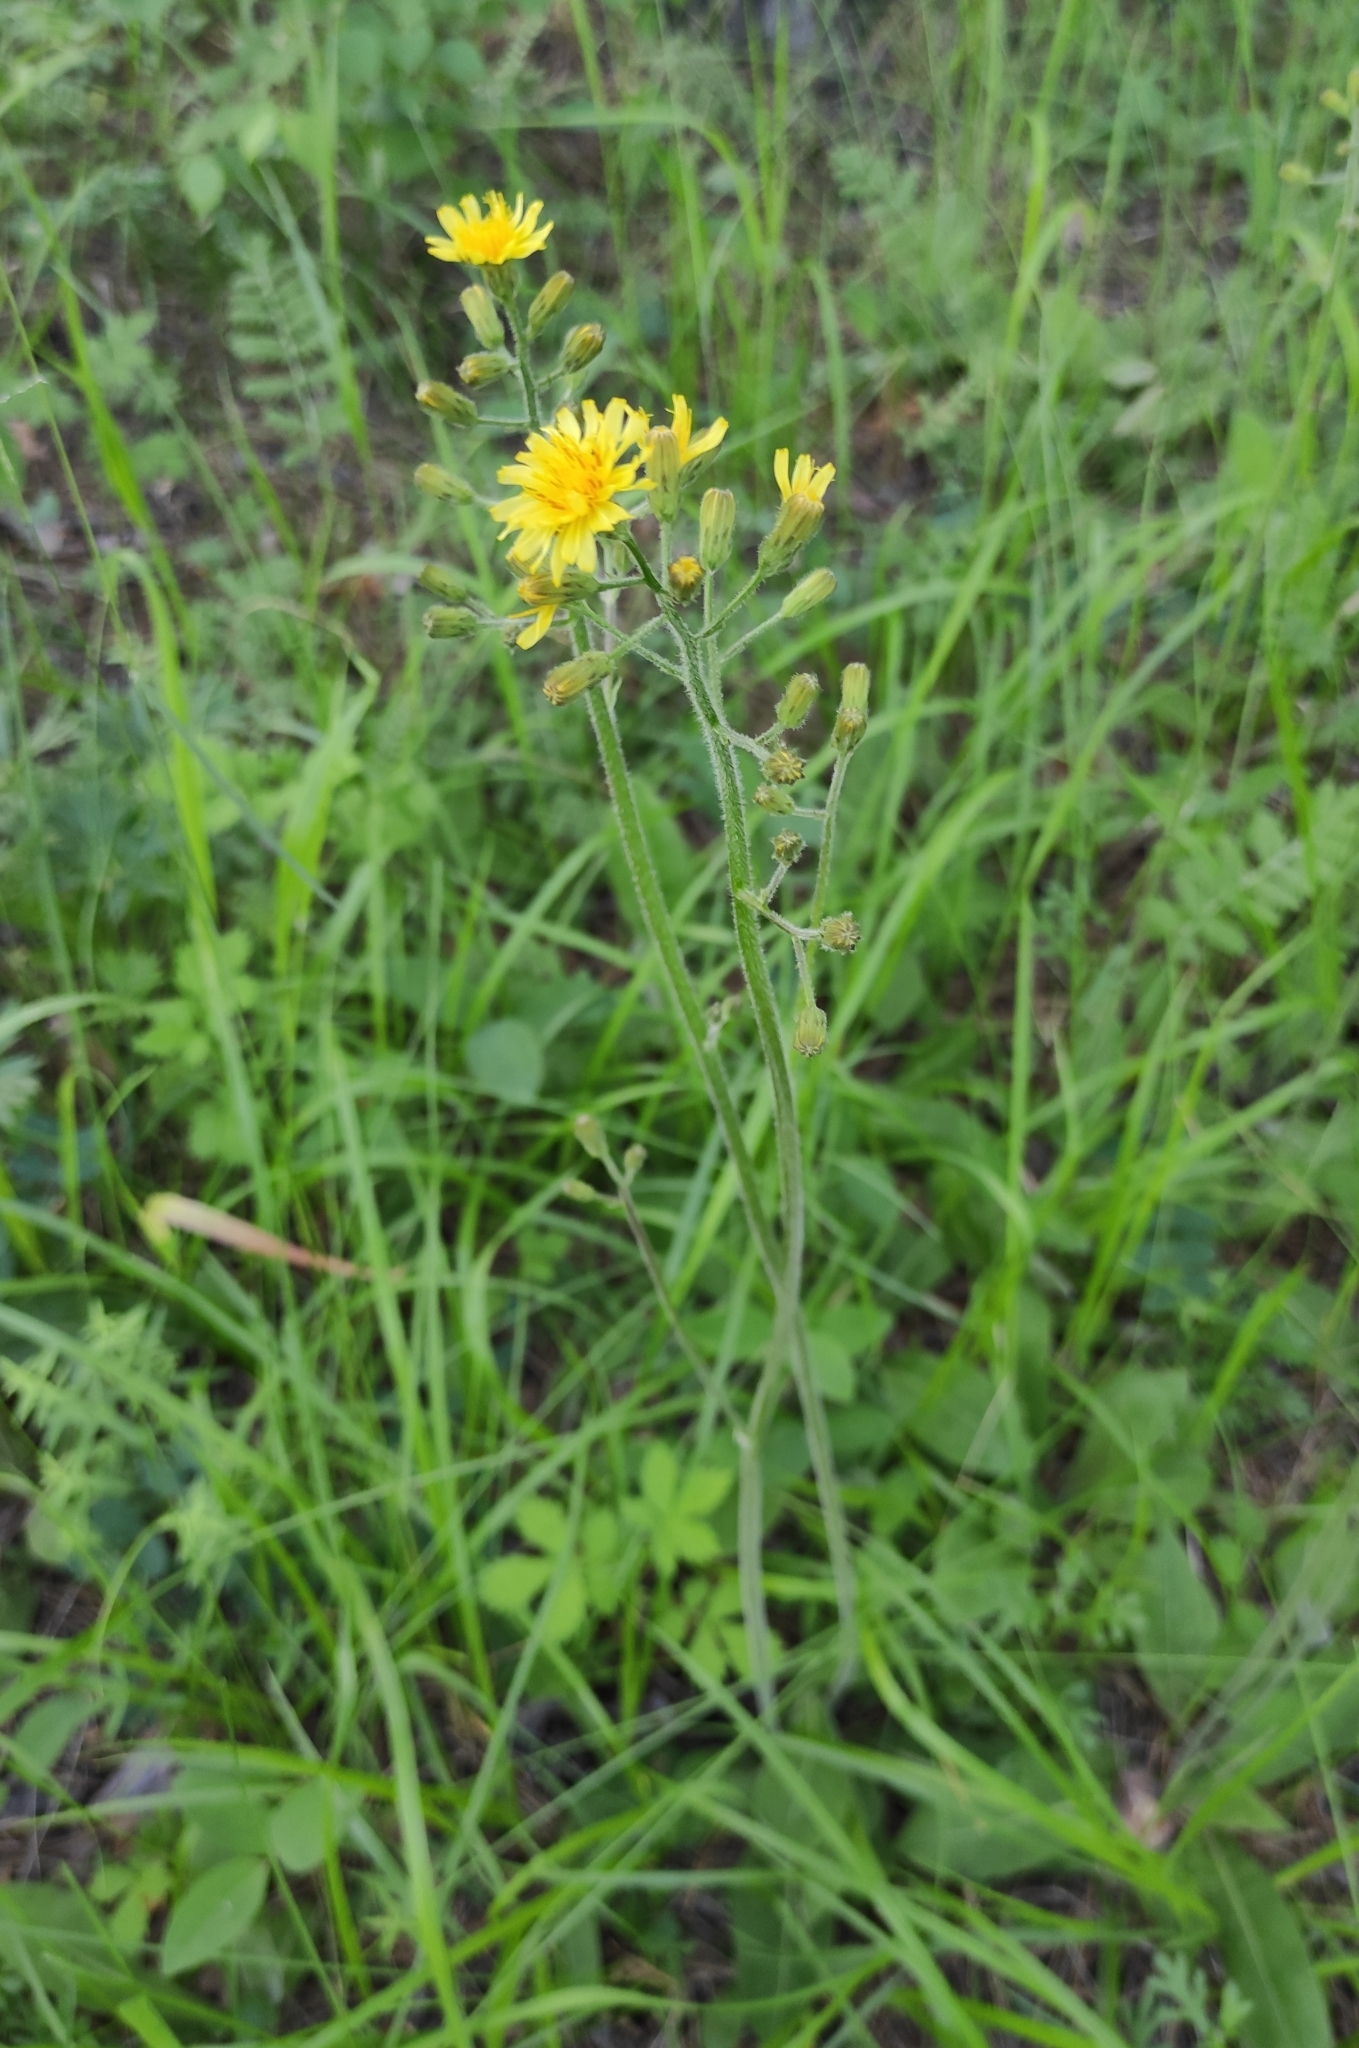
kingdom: Plantae
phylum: Tracheophyta
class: Magnoliopsida
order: Asterales
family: Asteraceae
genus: Crepis
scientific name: Crepis praemorsa
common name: Leafless hawk's-beard
